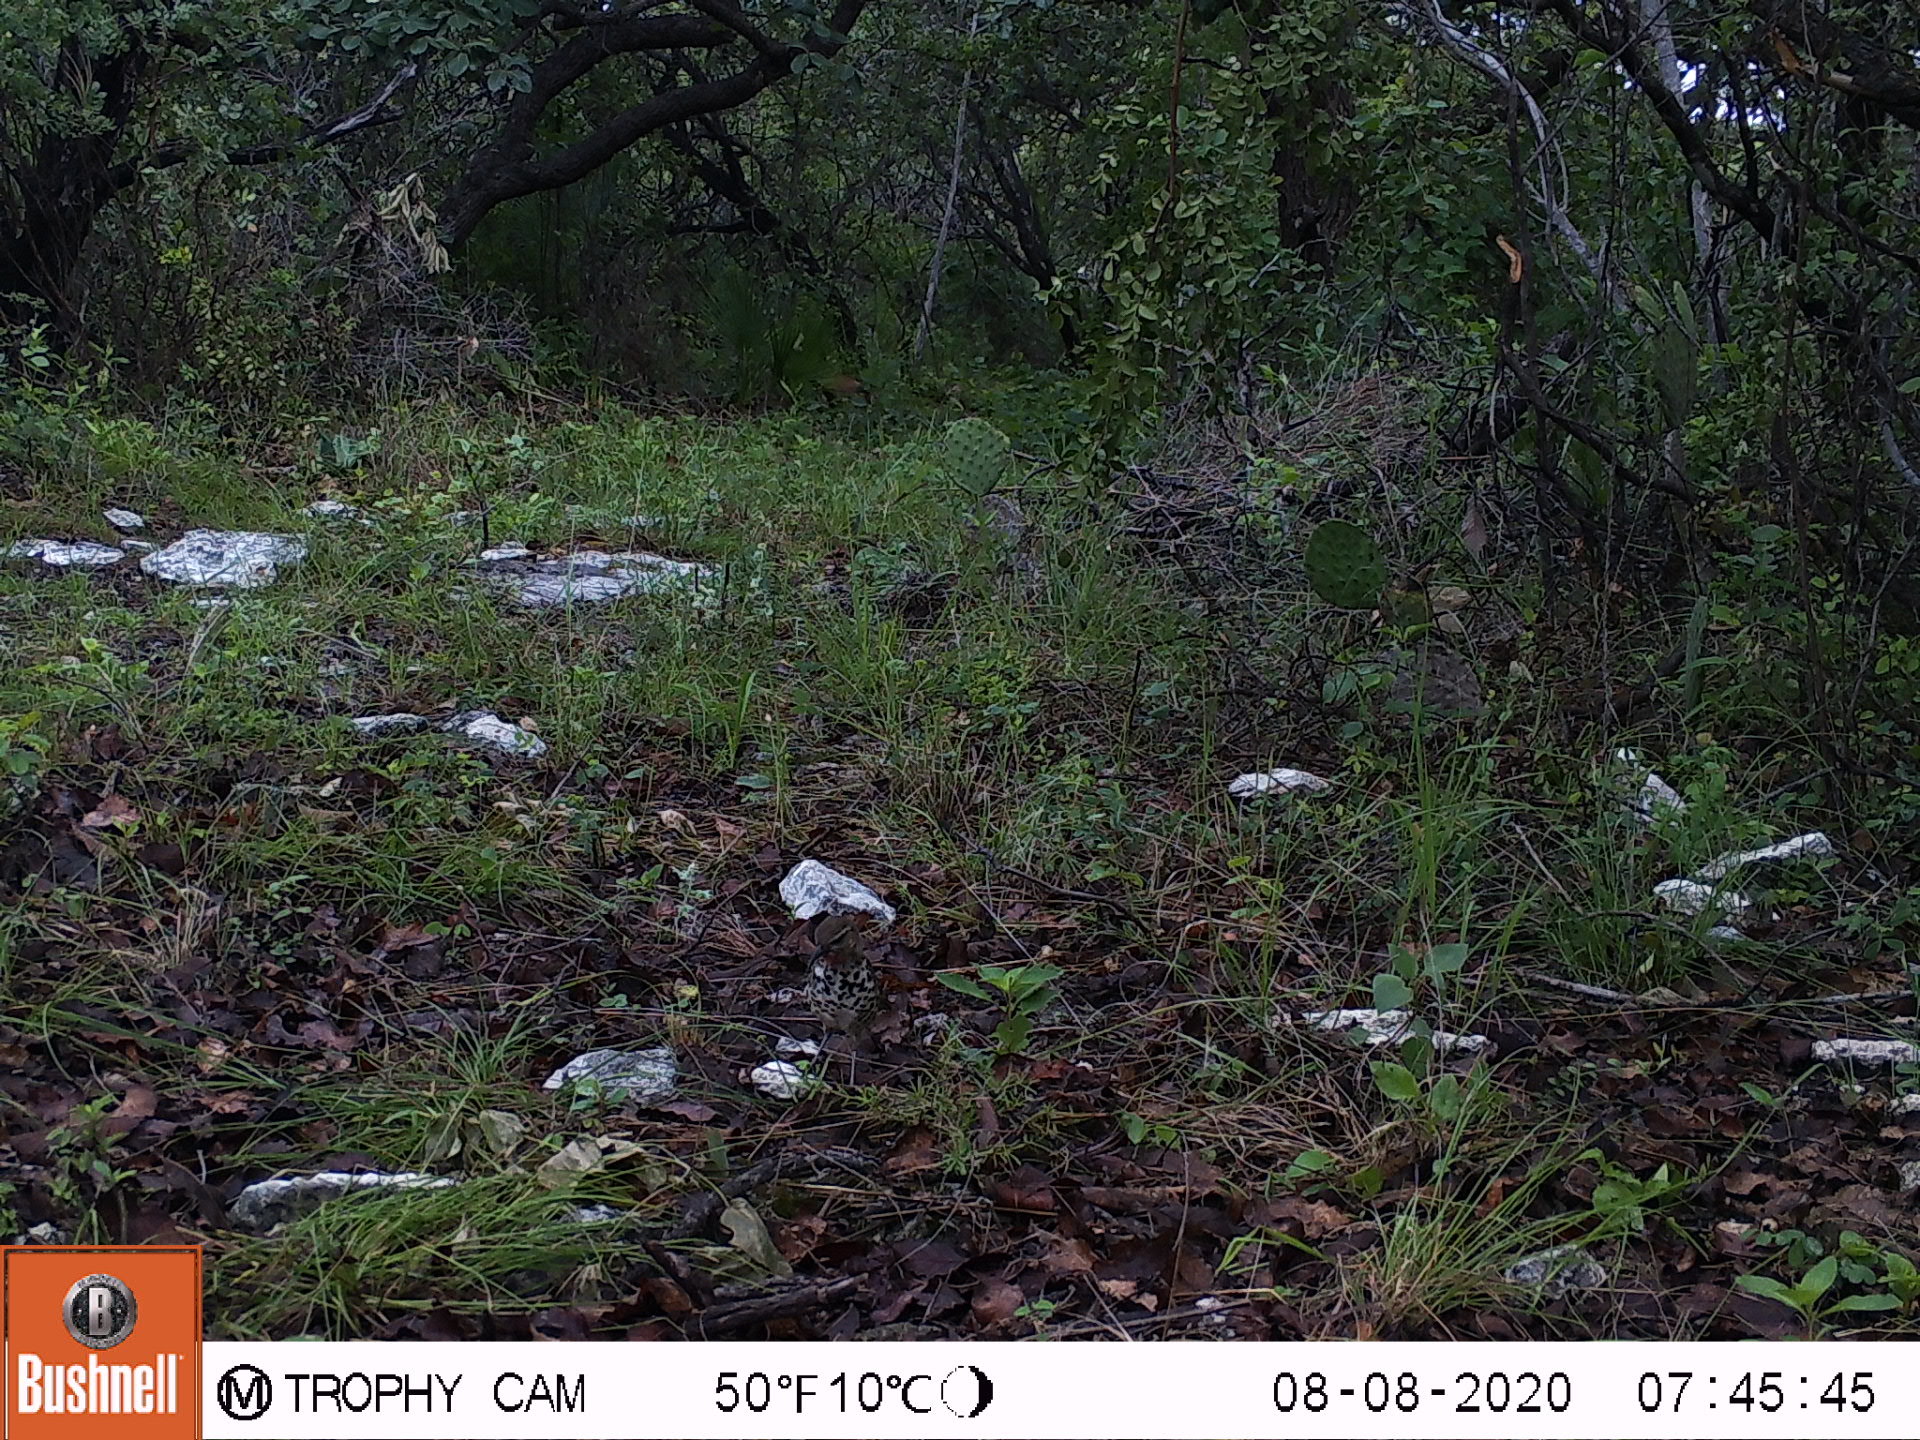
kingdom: Animalia
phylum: Chordata
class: Aves
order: Passeriformes
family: Mimidae
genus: Toxostoma
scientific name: Toxostoma ocellatum
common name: Ocellated thrasher
